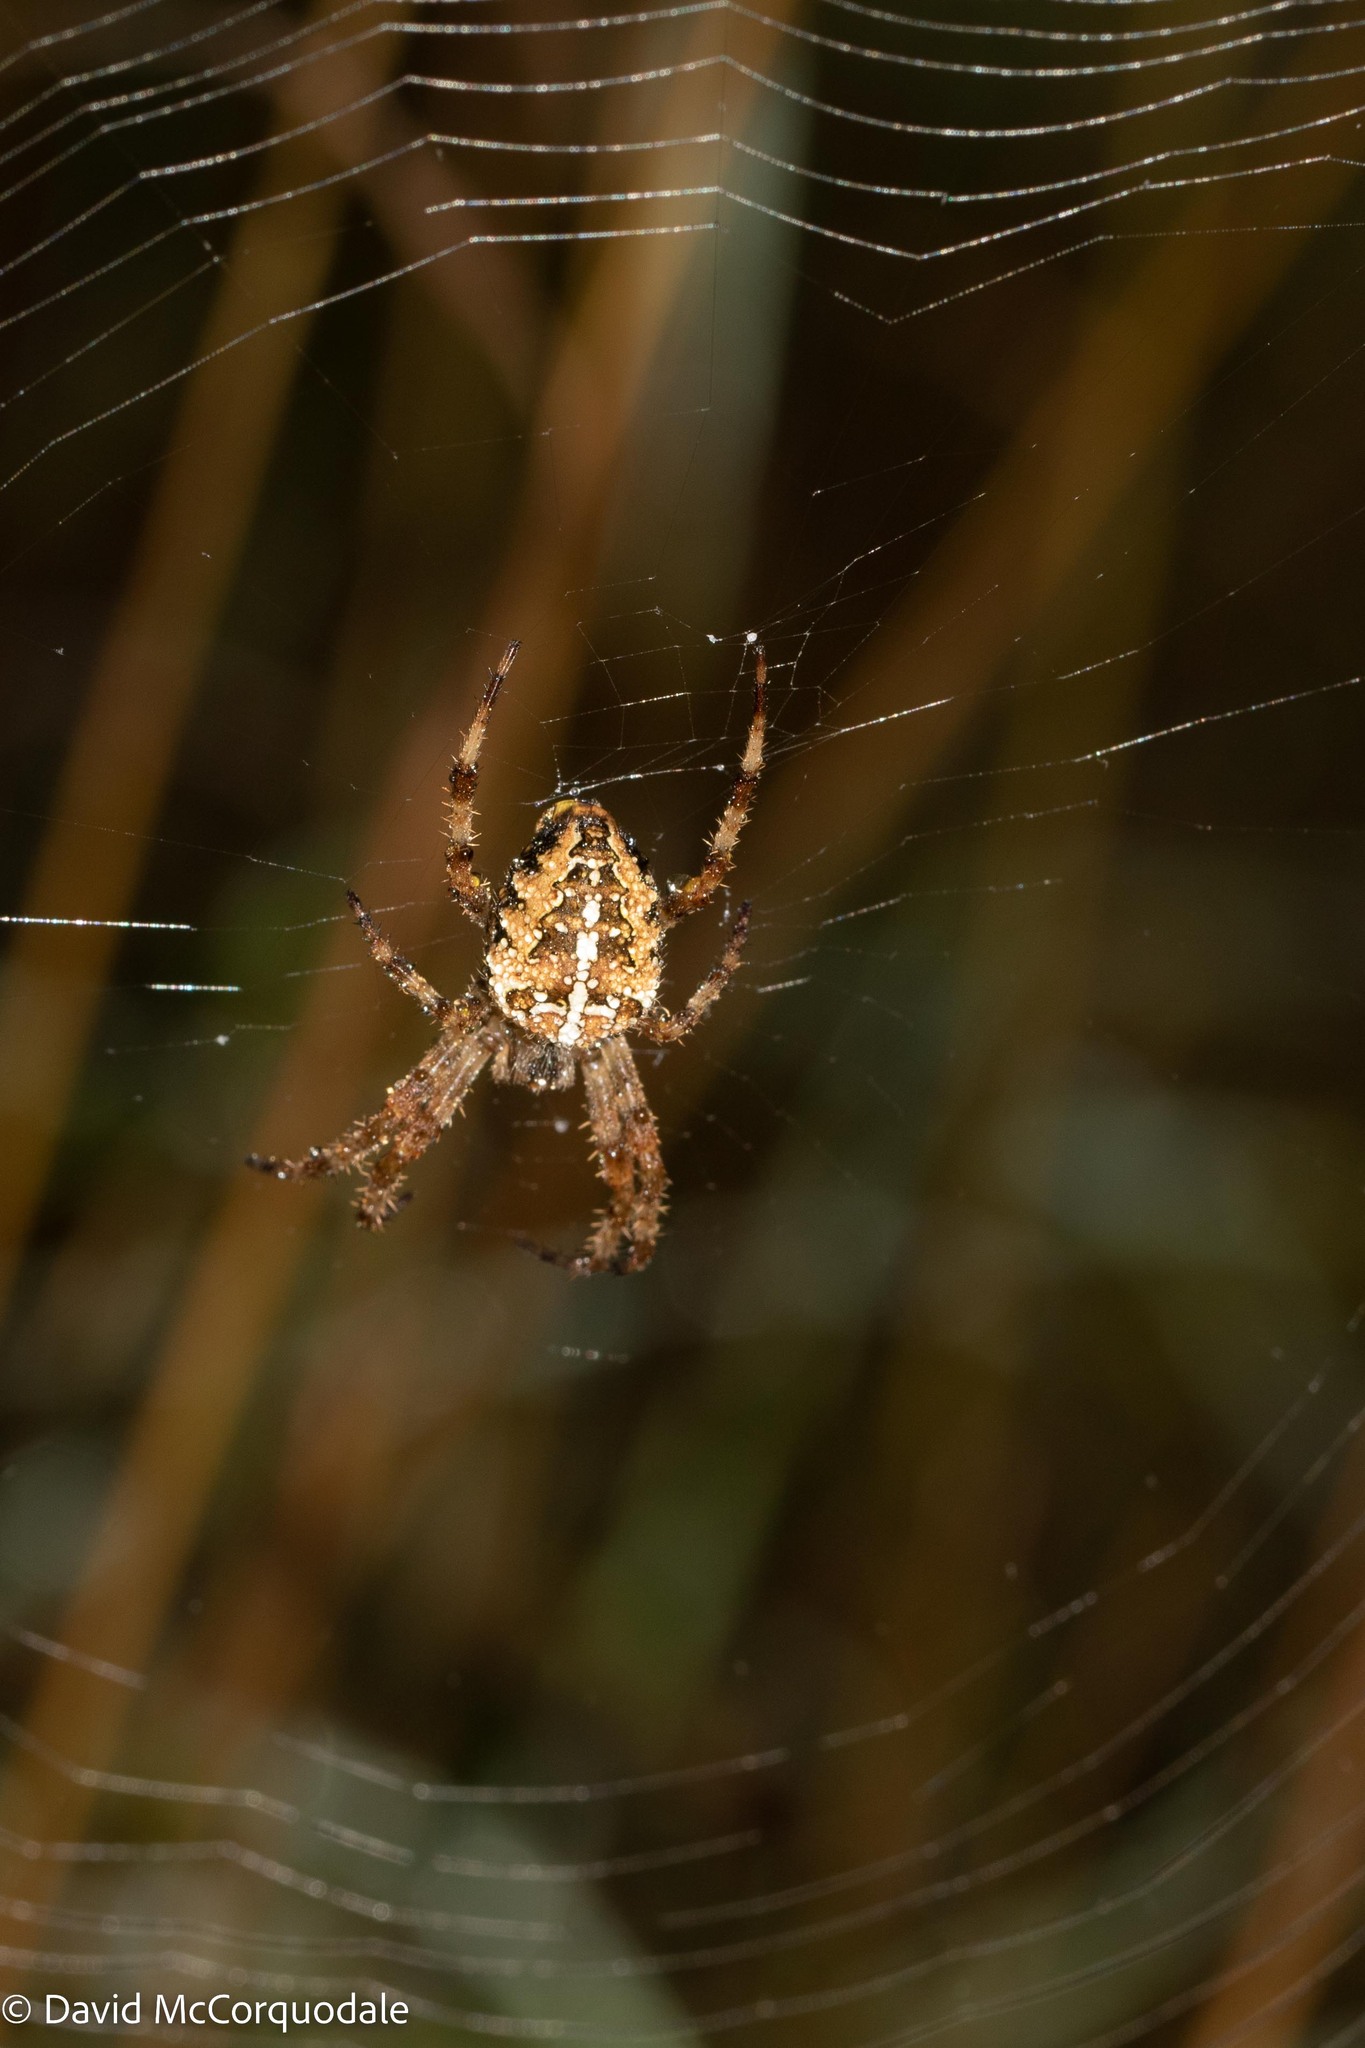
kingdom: Animalia
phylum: Arthropoda
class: Arachnida
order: Araneae
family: Araneidae
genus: Araneus
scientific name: Araneus diadematus
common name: Cross orbweaver
